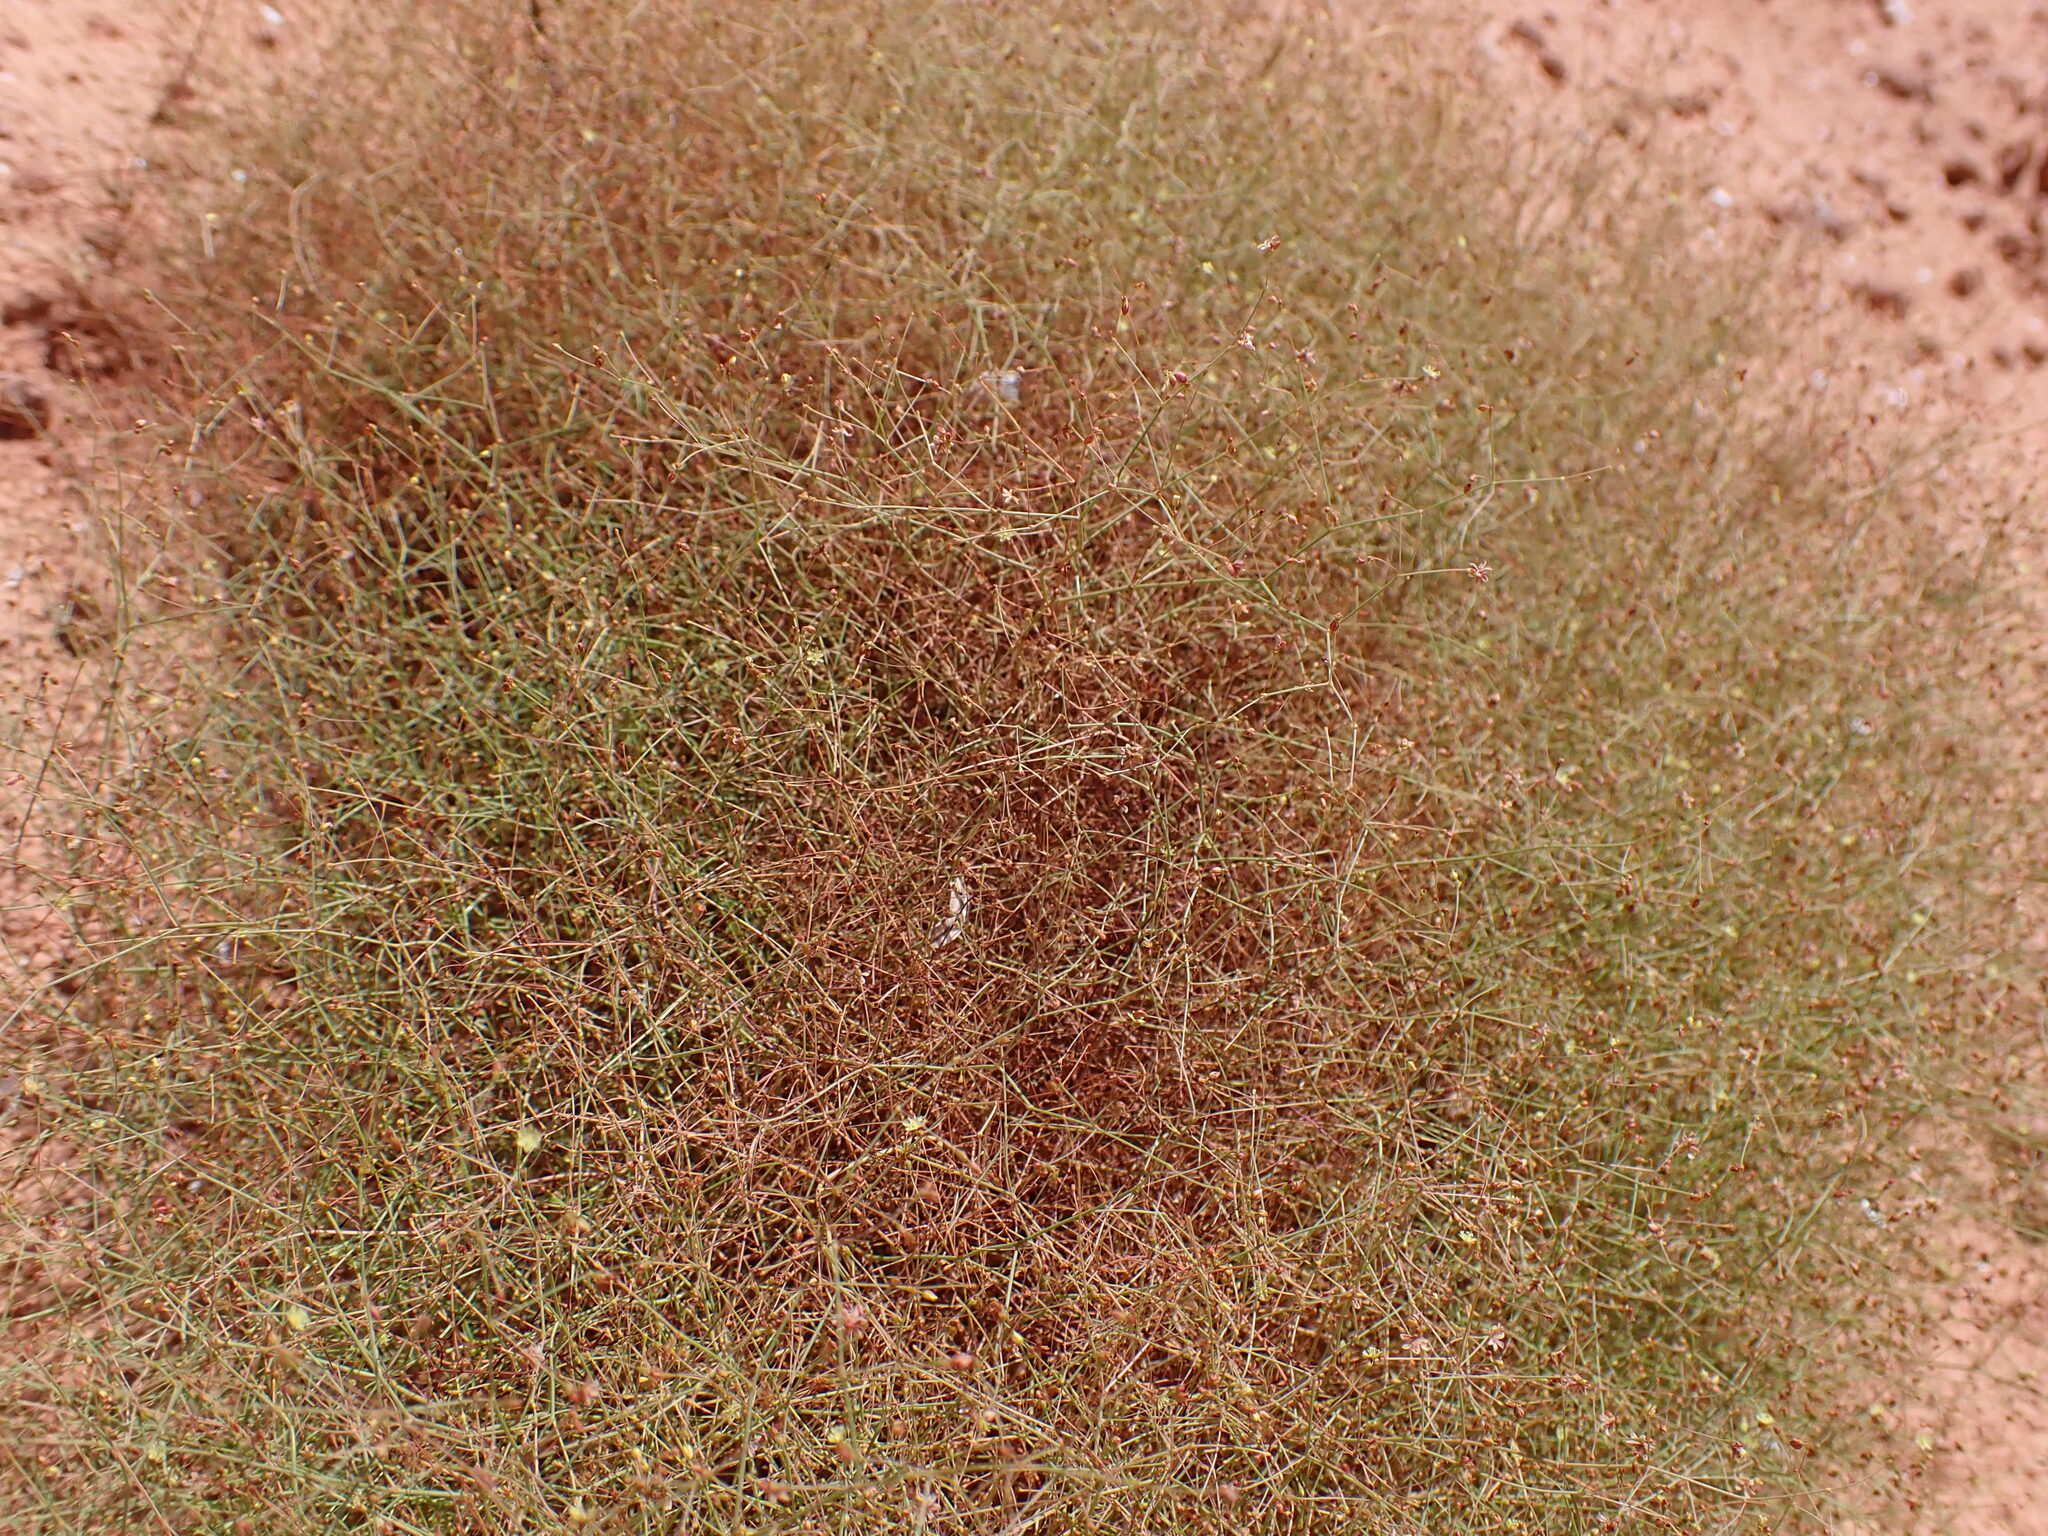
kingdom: Plantae
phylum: Tracheophyta
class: Magnoliopsida
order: Caryophyllales
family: Polygonaceae
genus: Eriogonum
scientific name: Eriogonum wetherillii
